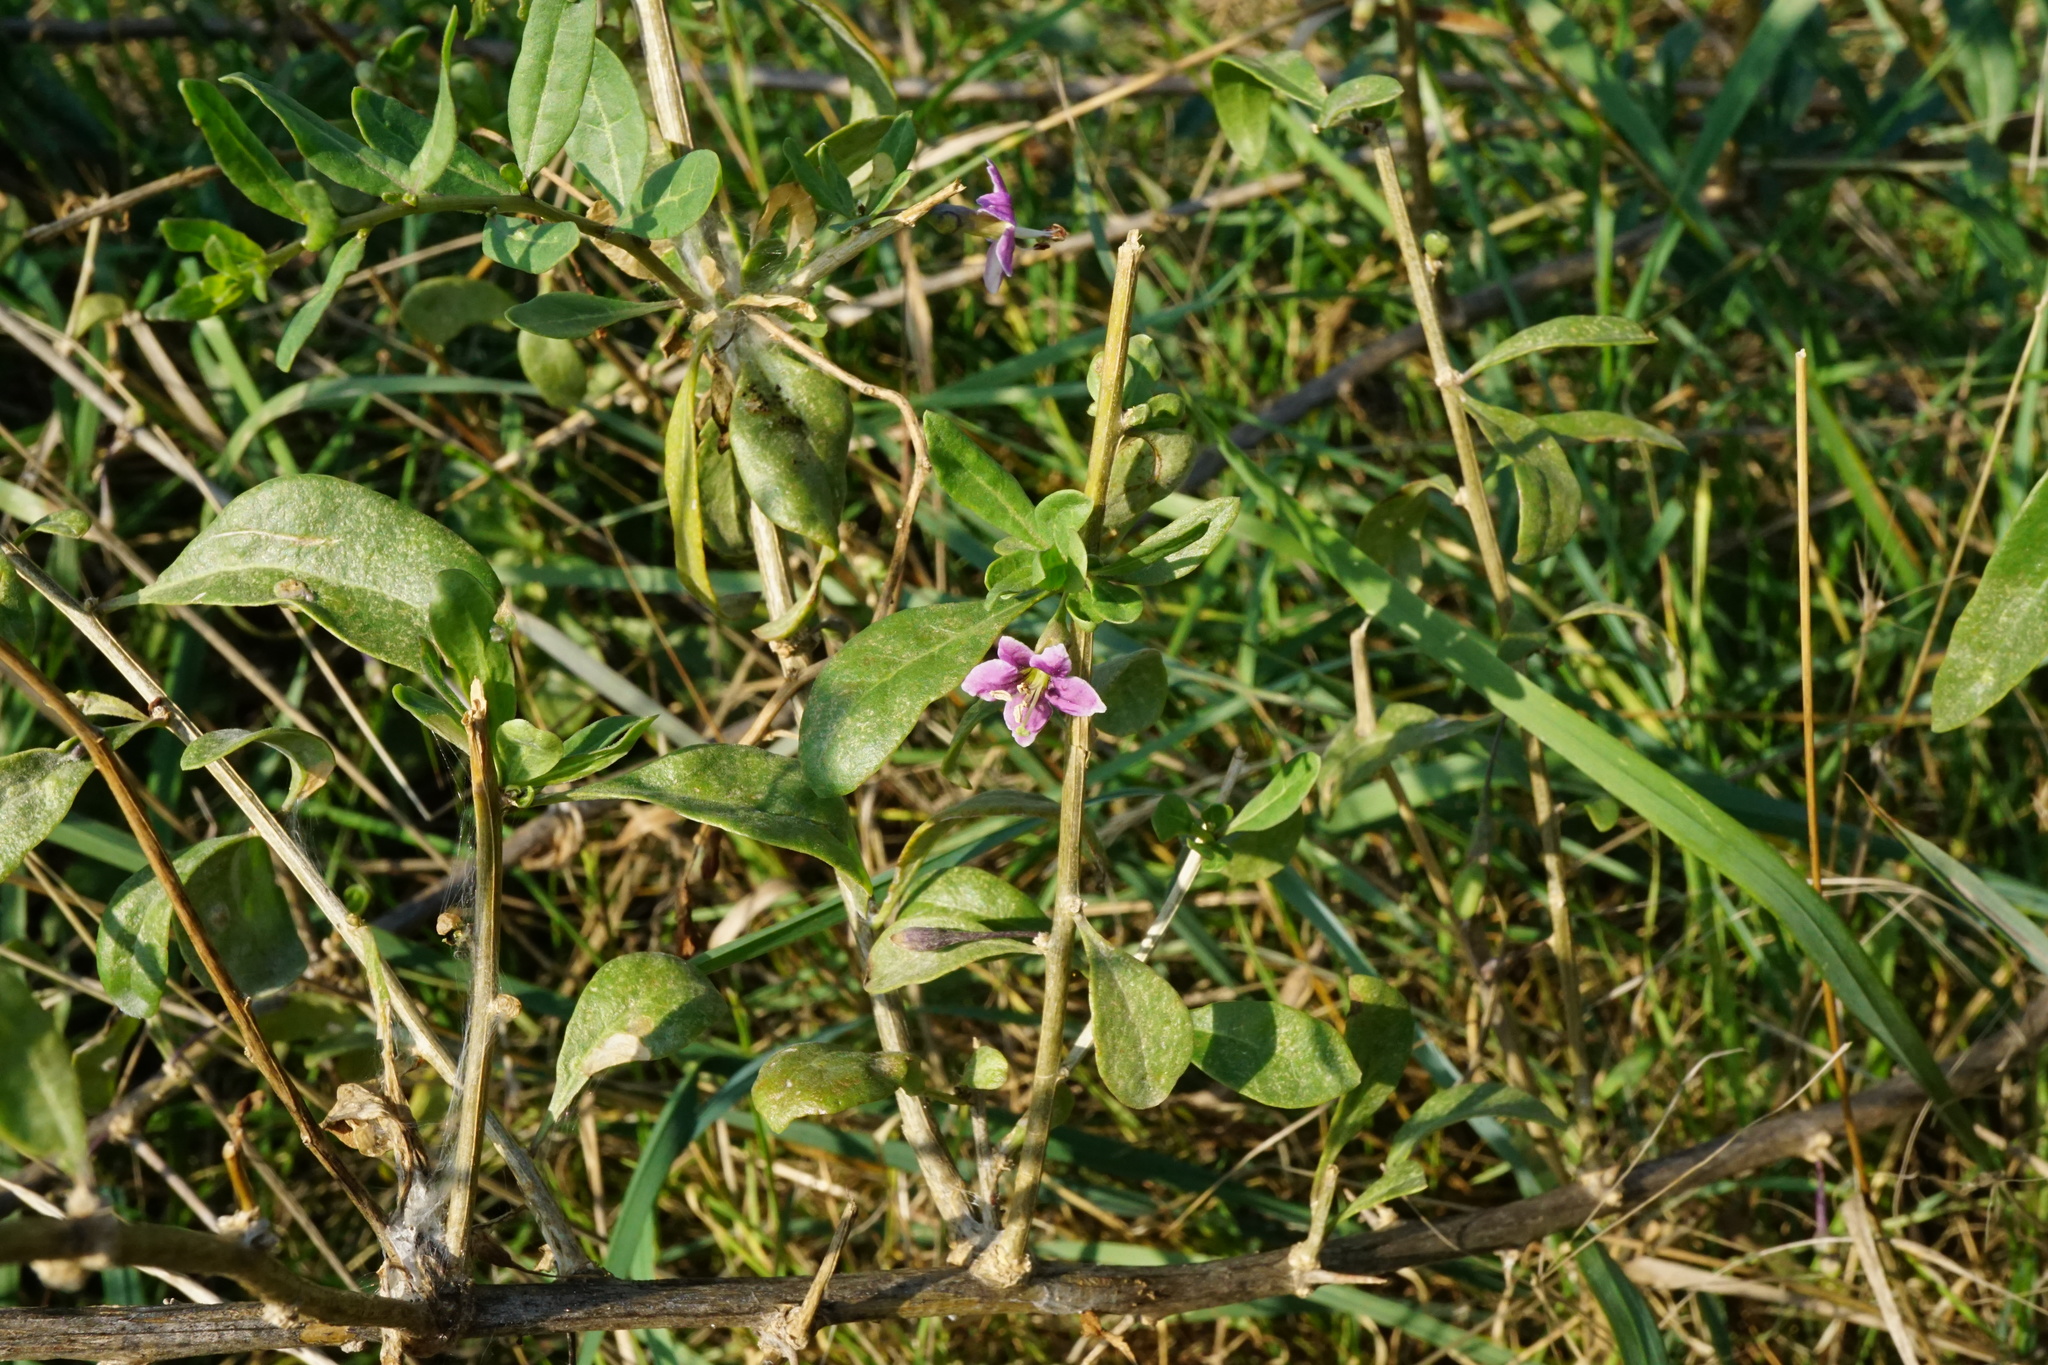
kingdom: Plantae
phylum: Tracheophyta
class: Magnoliopsida
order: Solanales
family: Solanaceae
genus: Lycium
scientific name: Lycium barbarum
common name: Duke of argyll's teaplant
